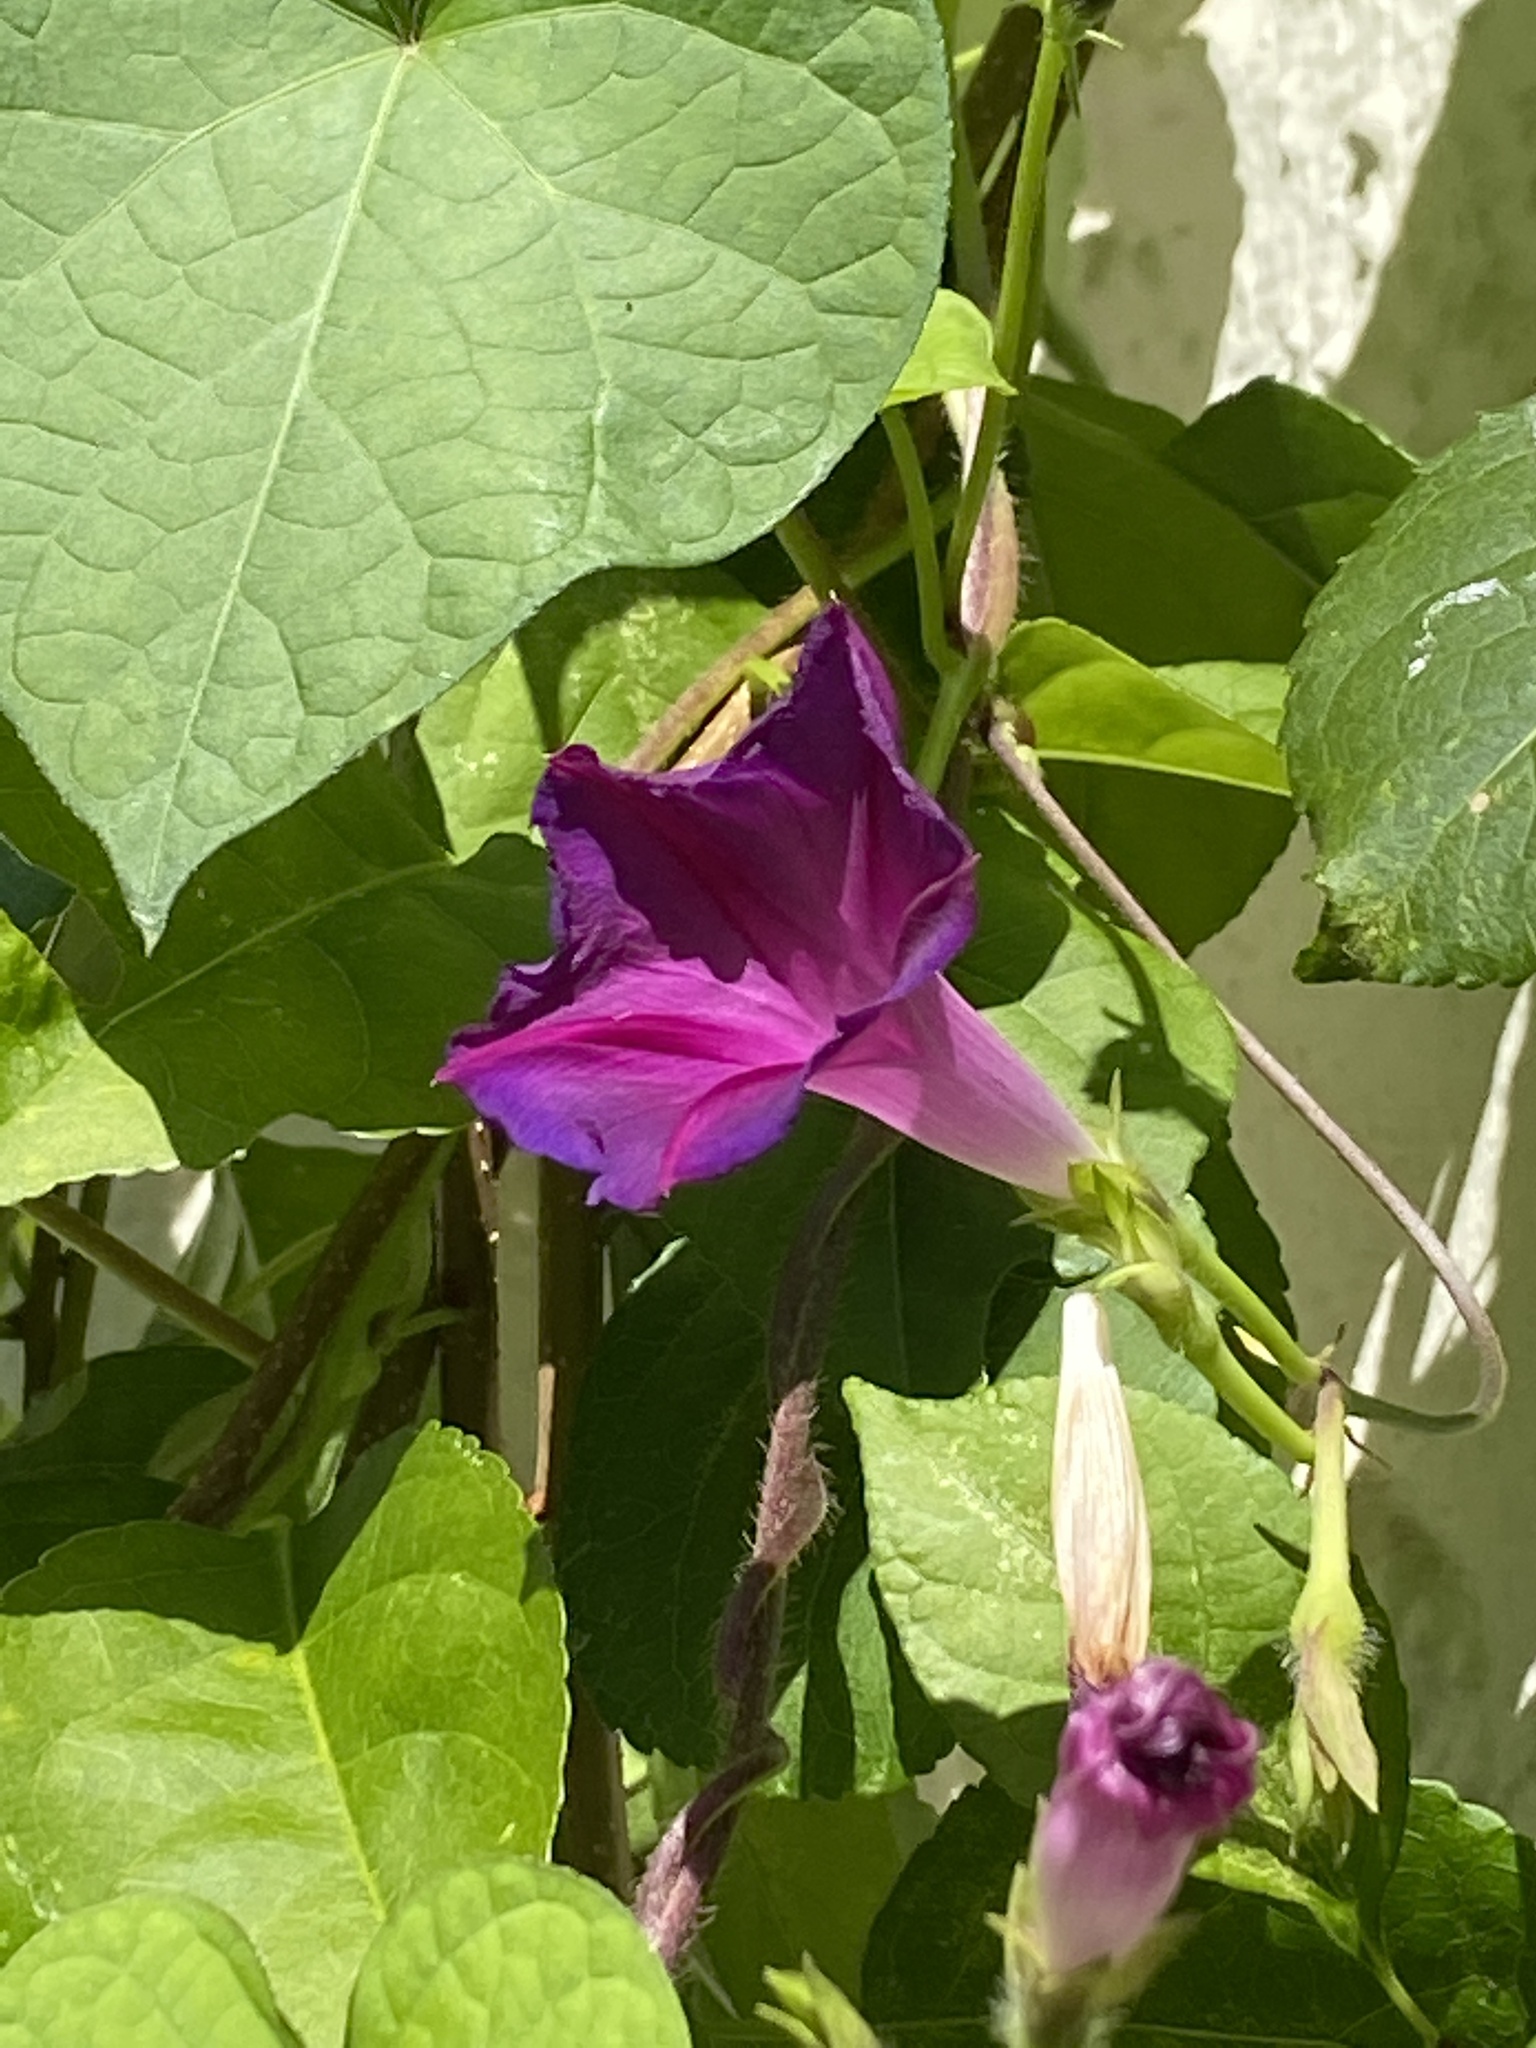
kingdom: Plantae
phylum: Tracheophyta
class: Magnoliopsida
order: Solanales
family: Convolvulaceae
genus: Ipomoea
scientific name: Ipomoea purpurea
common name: Common morning-glory
